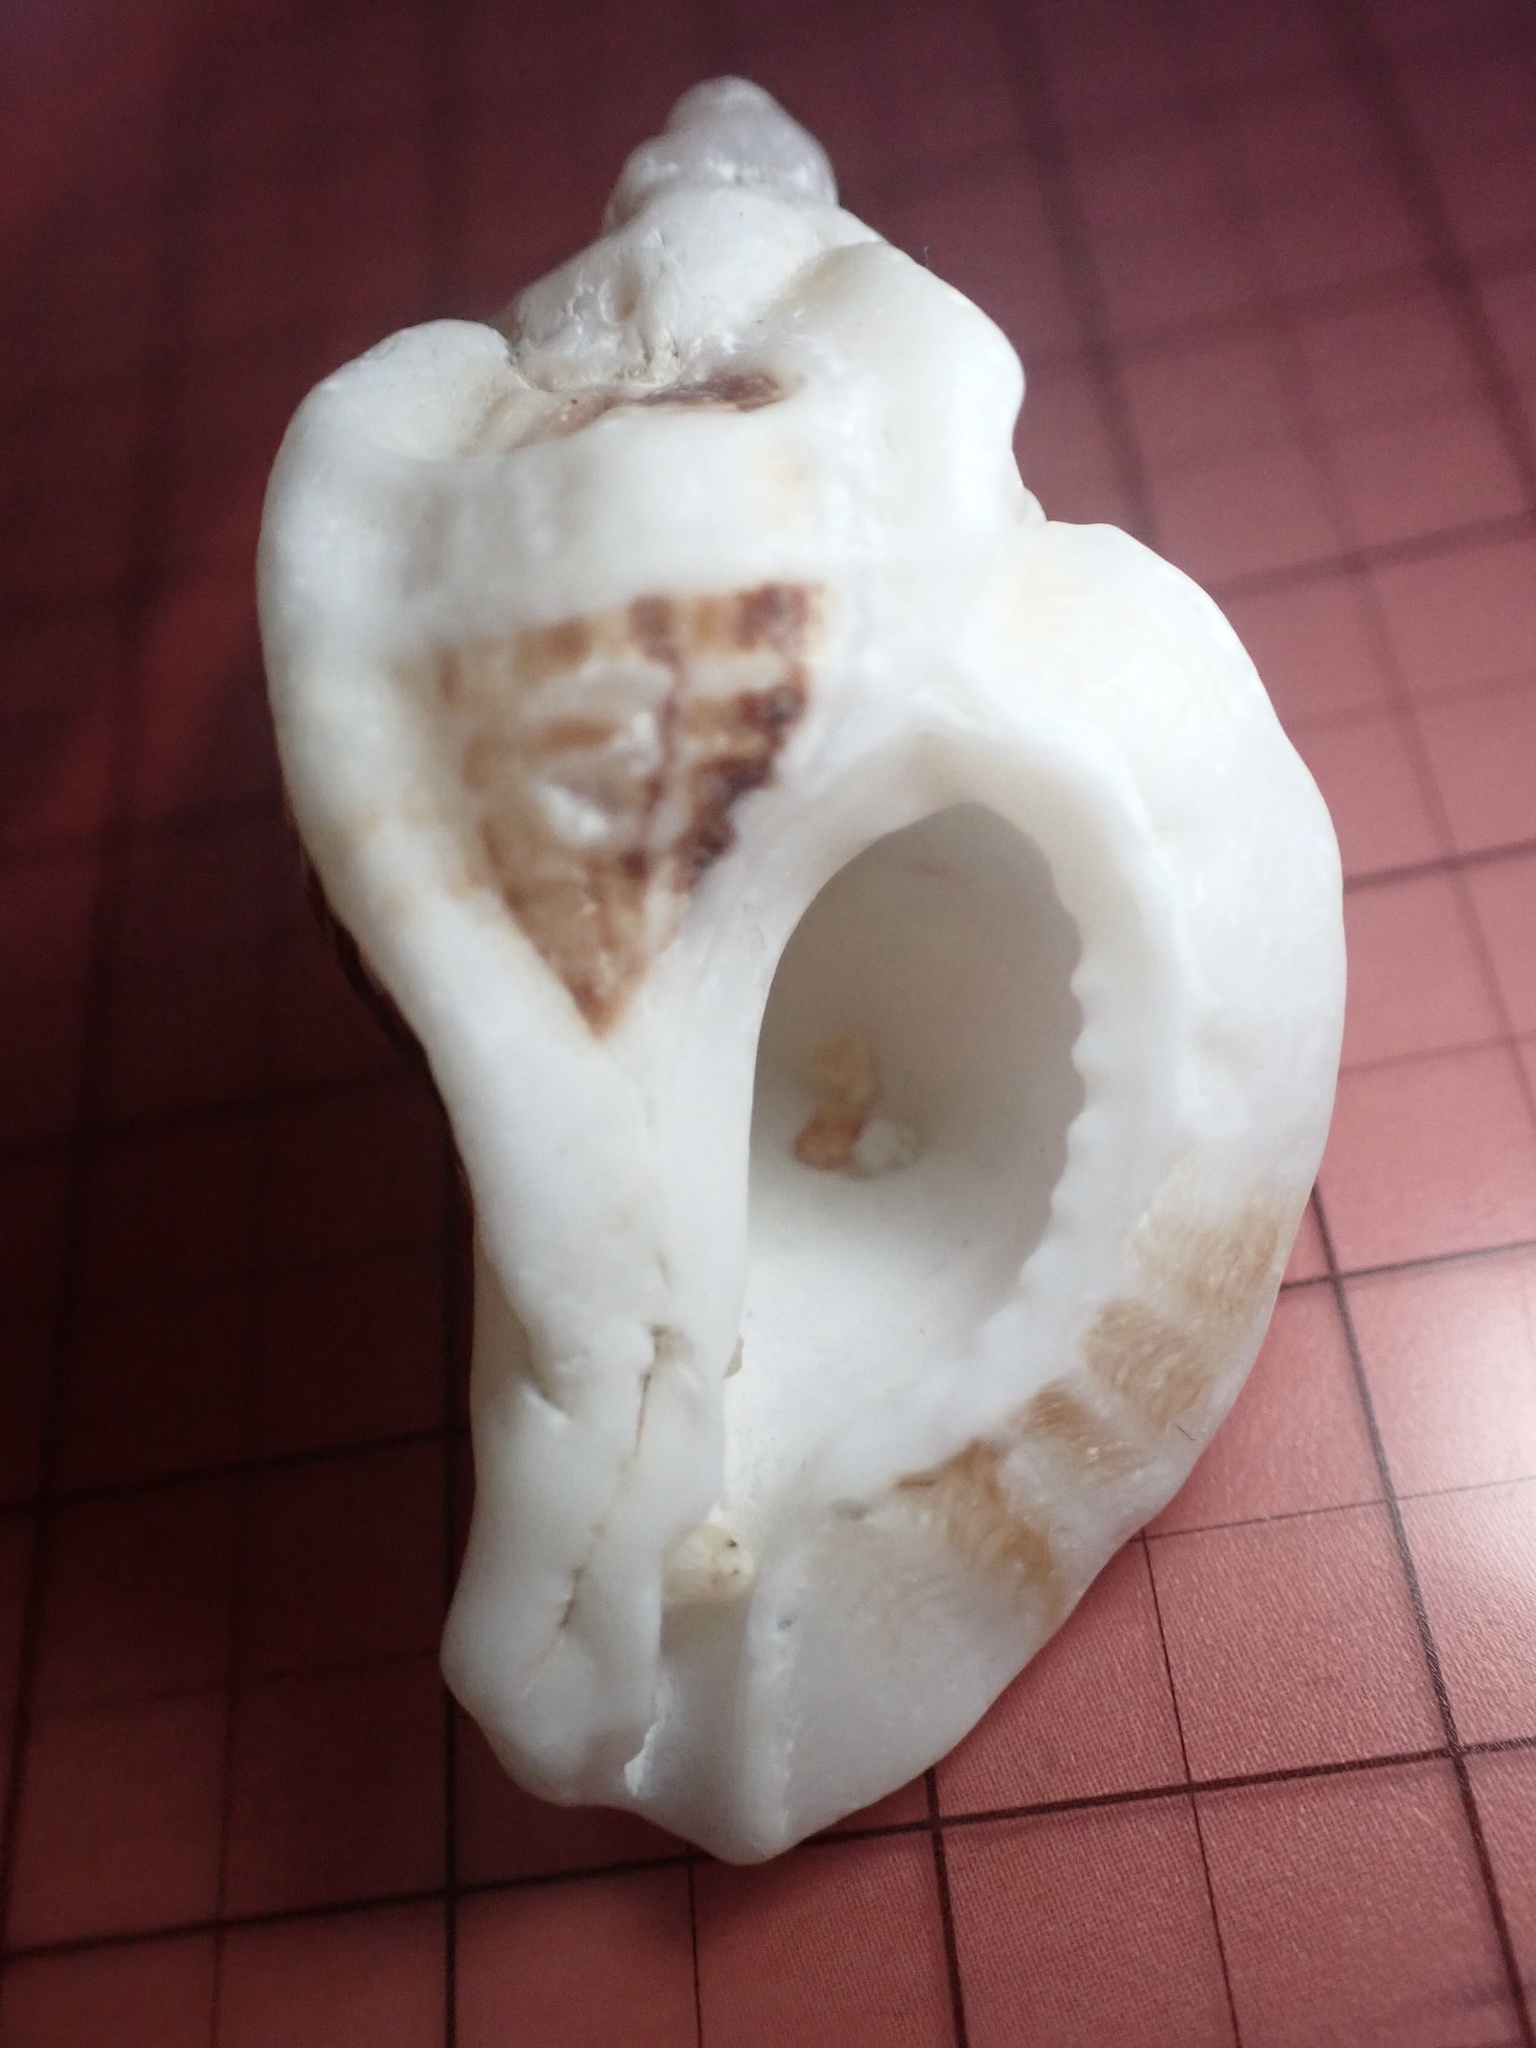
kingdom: Animalia
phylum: Mollusca
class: Gastropoda
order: Neogastropoda
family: Muricidae
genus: Ceratostoma
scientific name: Ceratostoma foliatum
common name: Foliate thorn purpura
